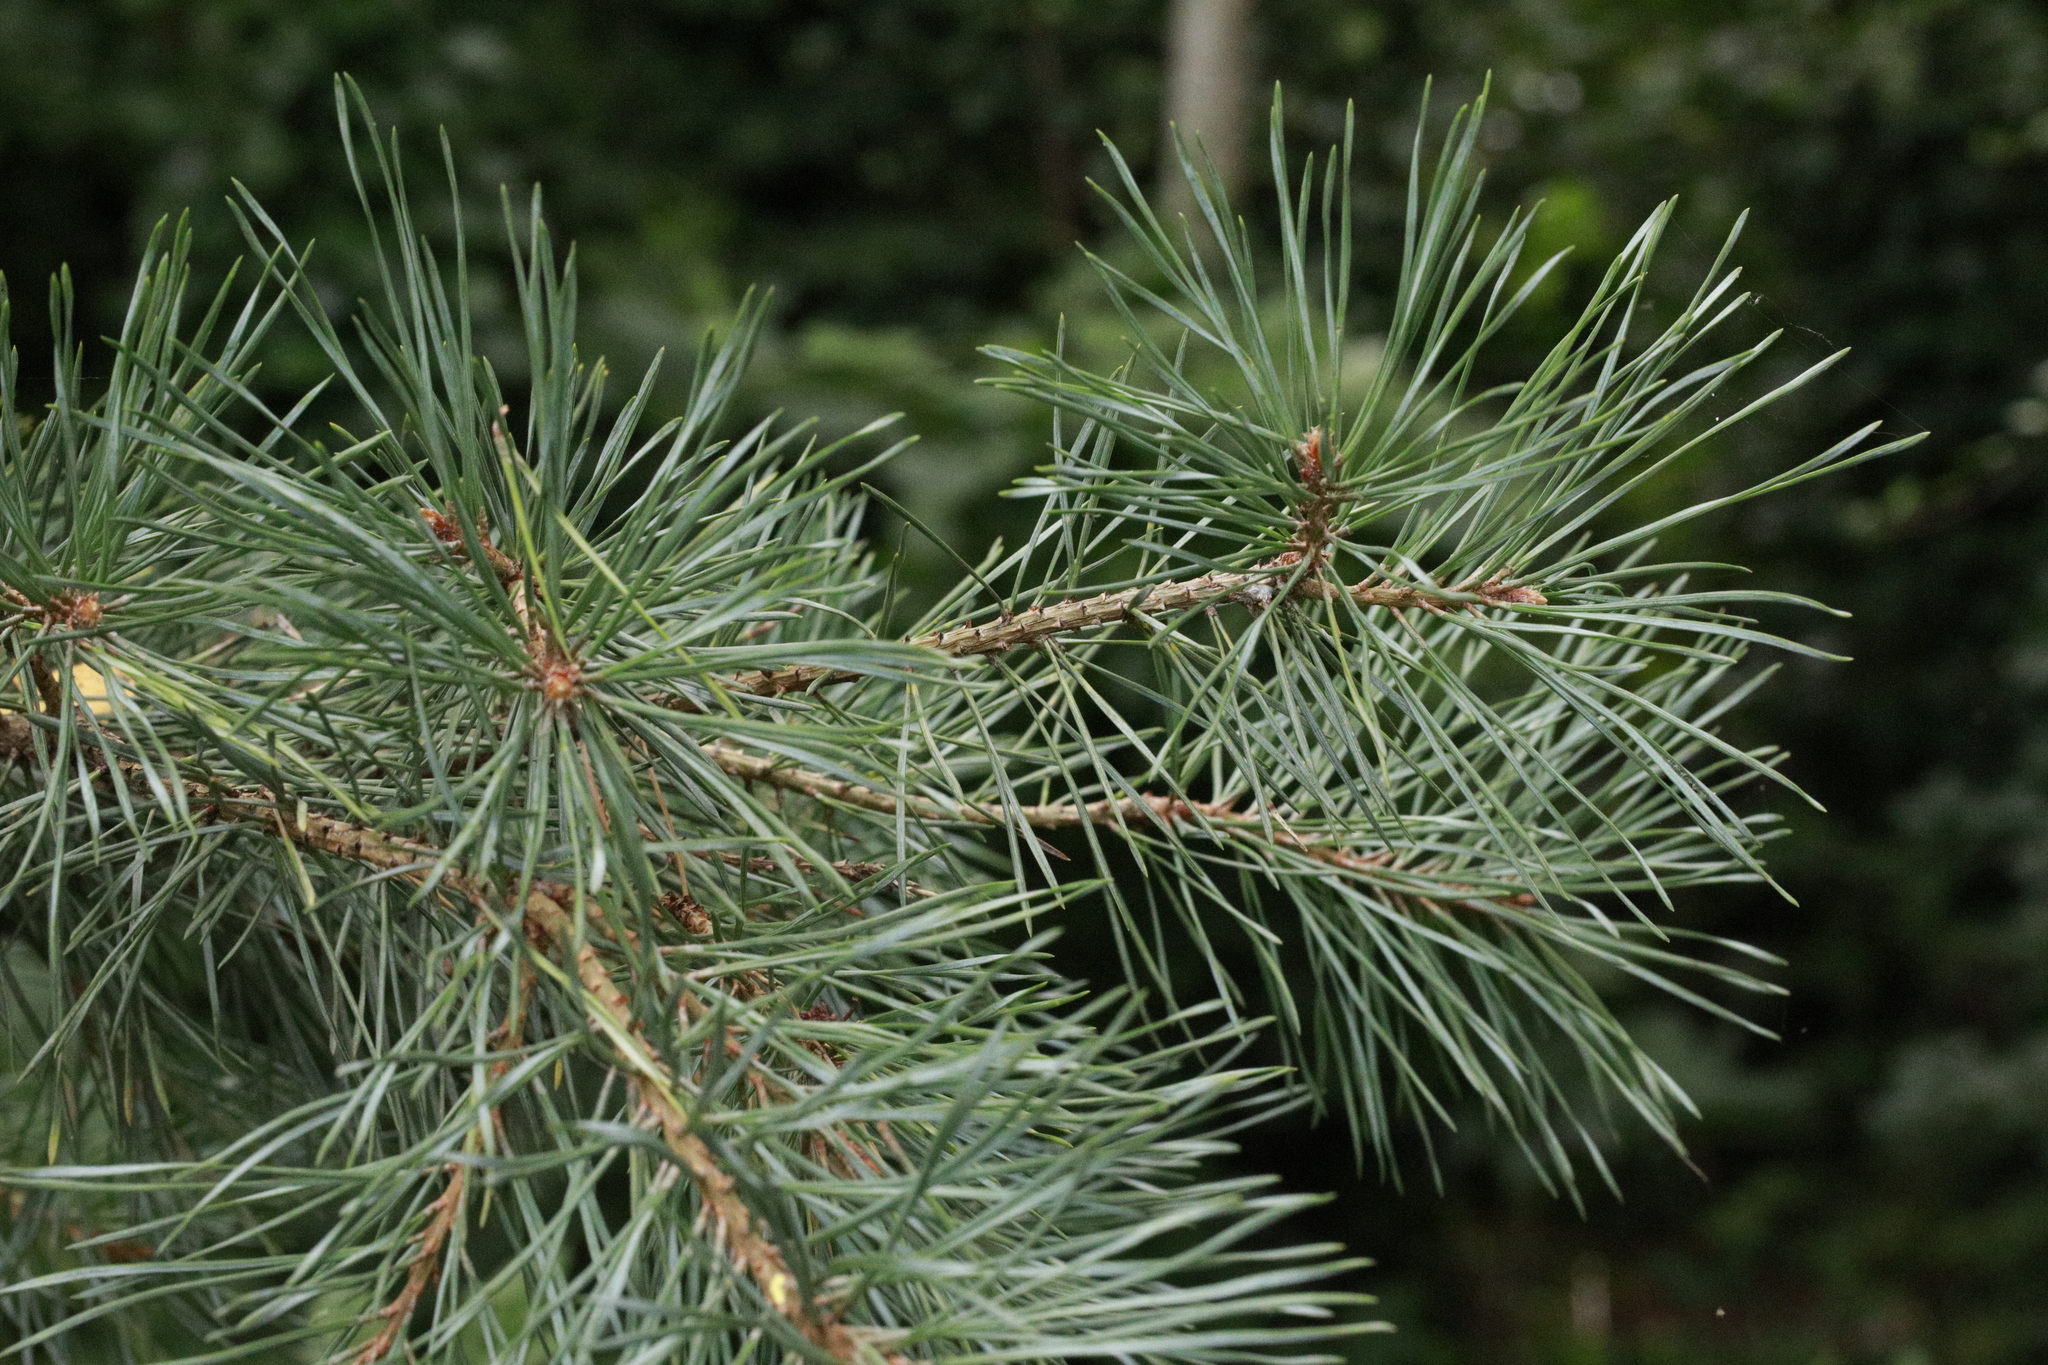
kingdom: Plantae
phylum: Tracheophyta
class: Pinopsida
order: Pinales
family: Pinaceae
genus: Pinus
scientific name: Pinus sylvestris
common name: Scots pine
